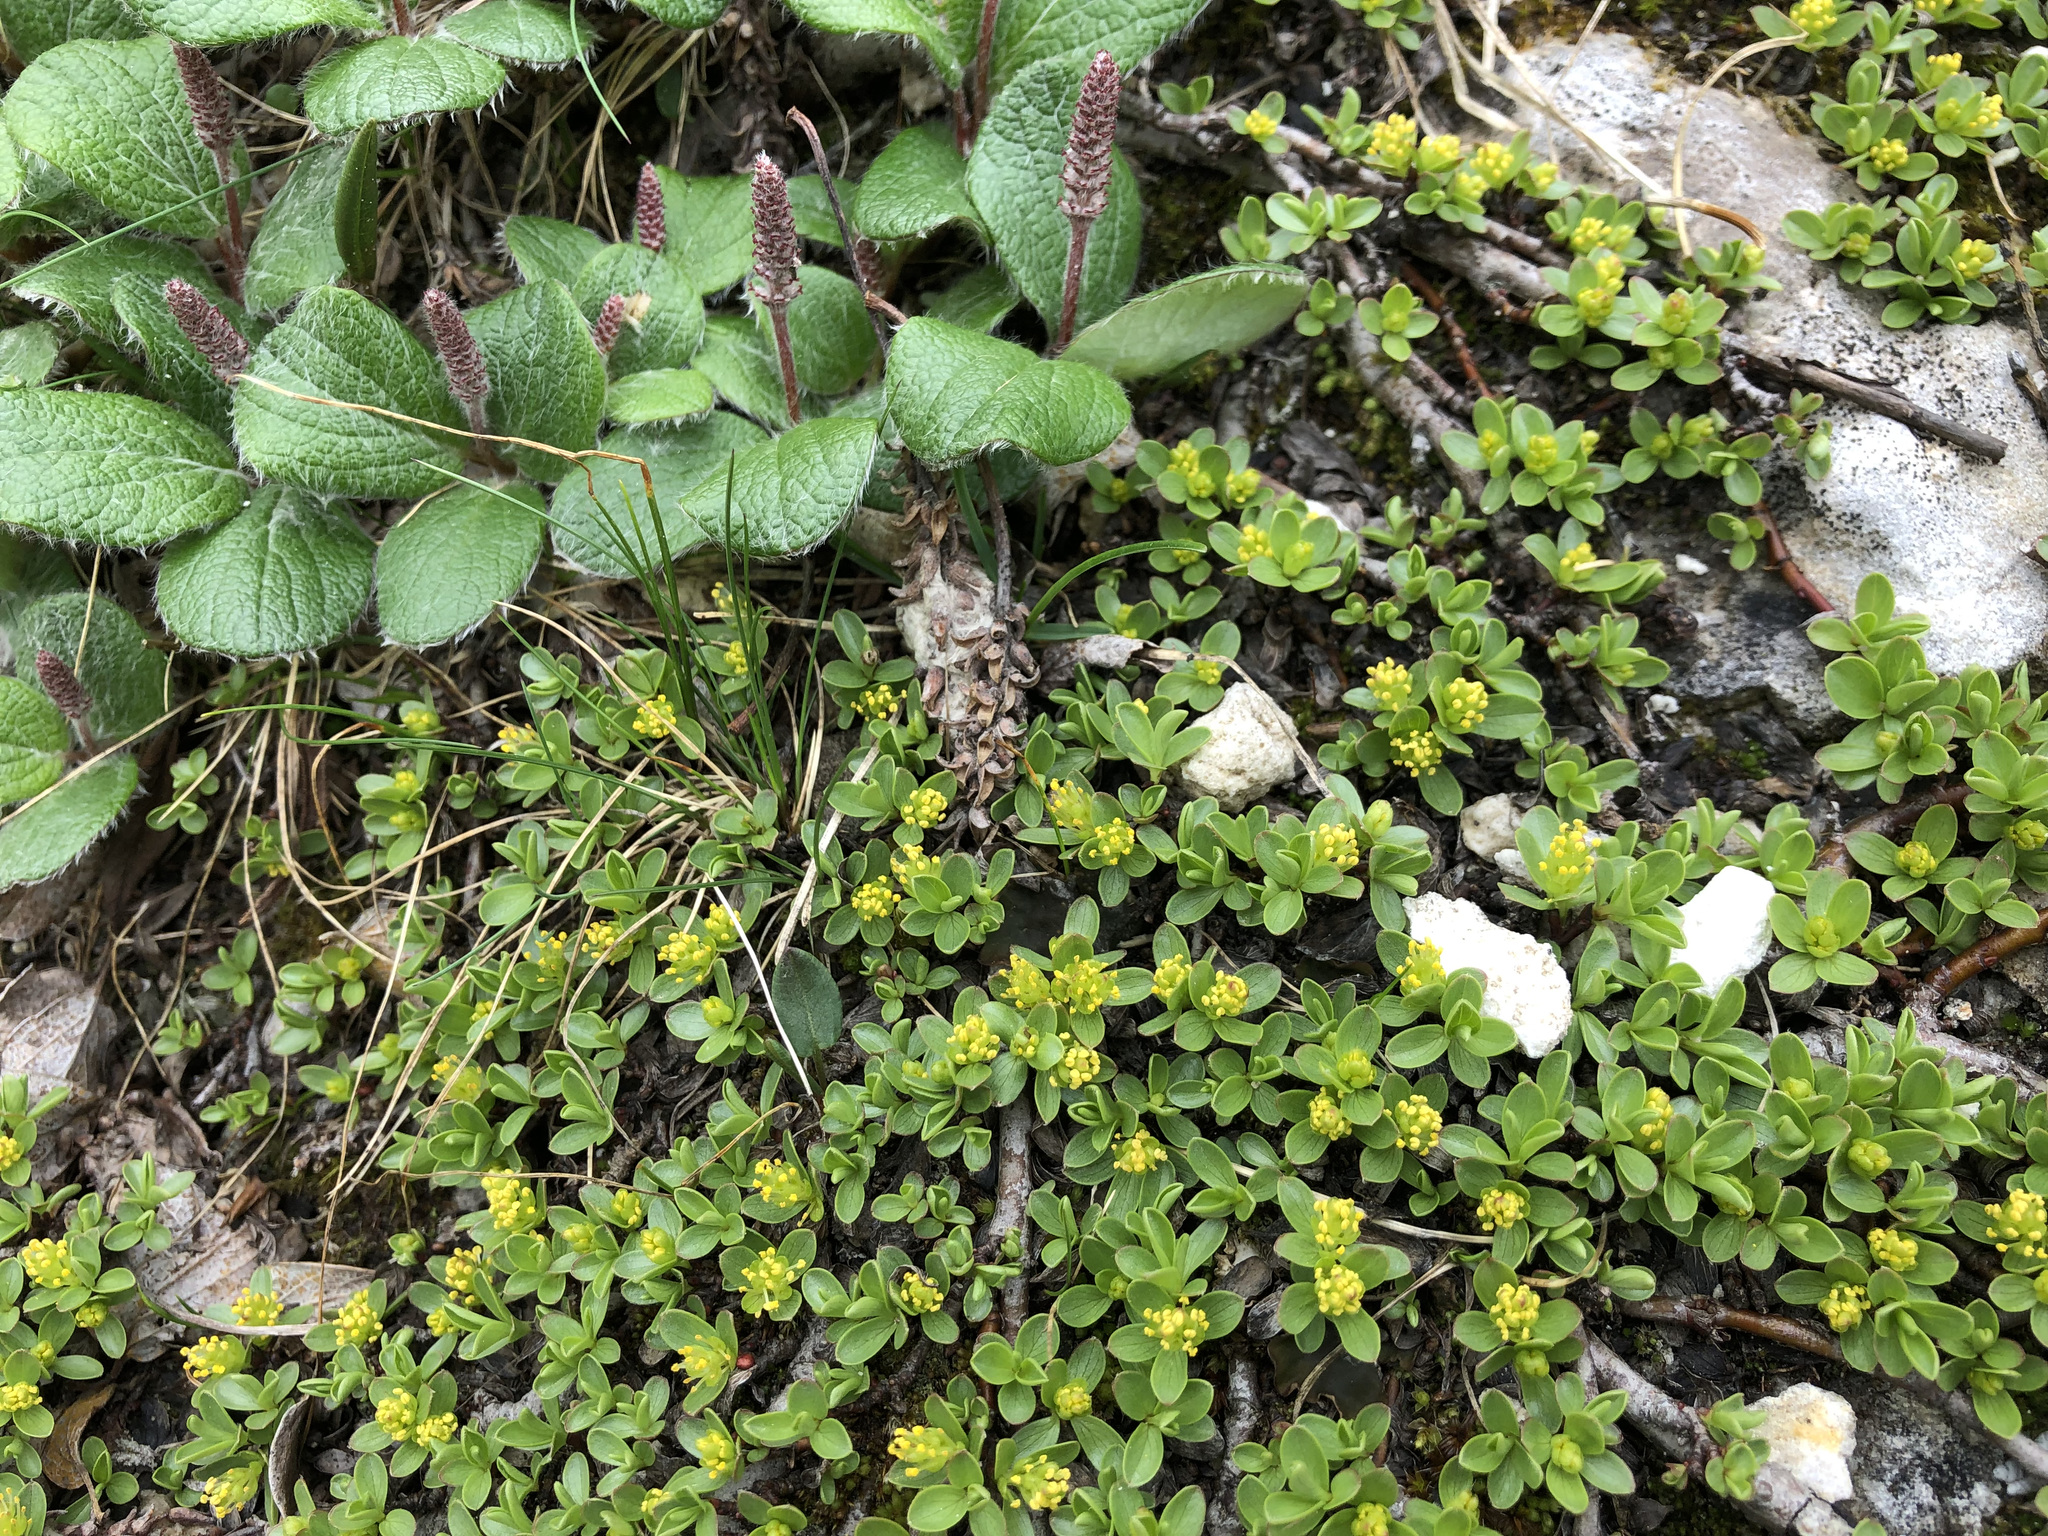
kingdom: Plantae
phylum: Tracheophyta
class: Magnoliopsida
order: Malpighiales
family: Salicaceae
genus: Salix
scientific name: Salix retusa
